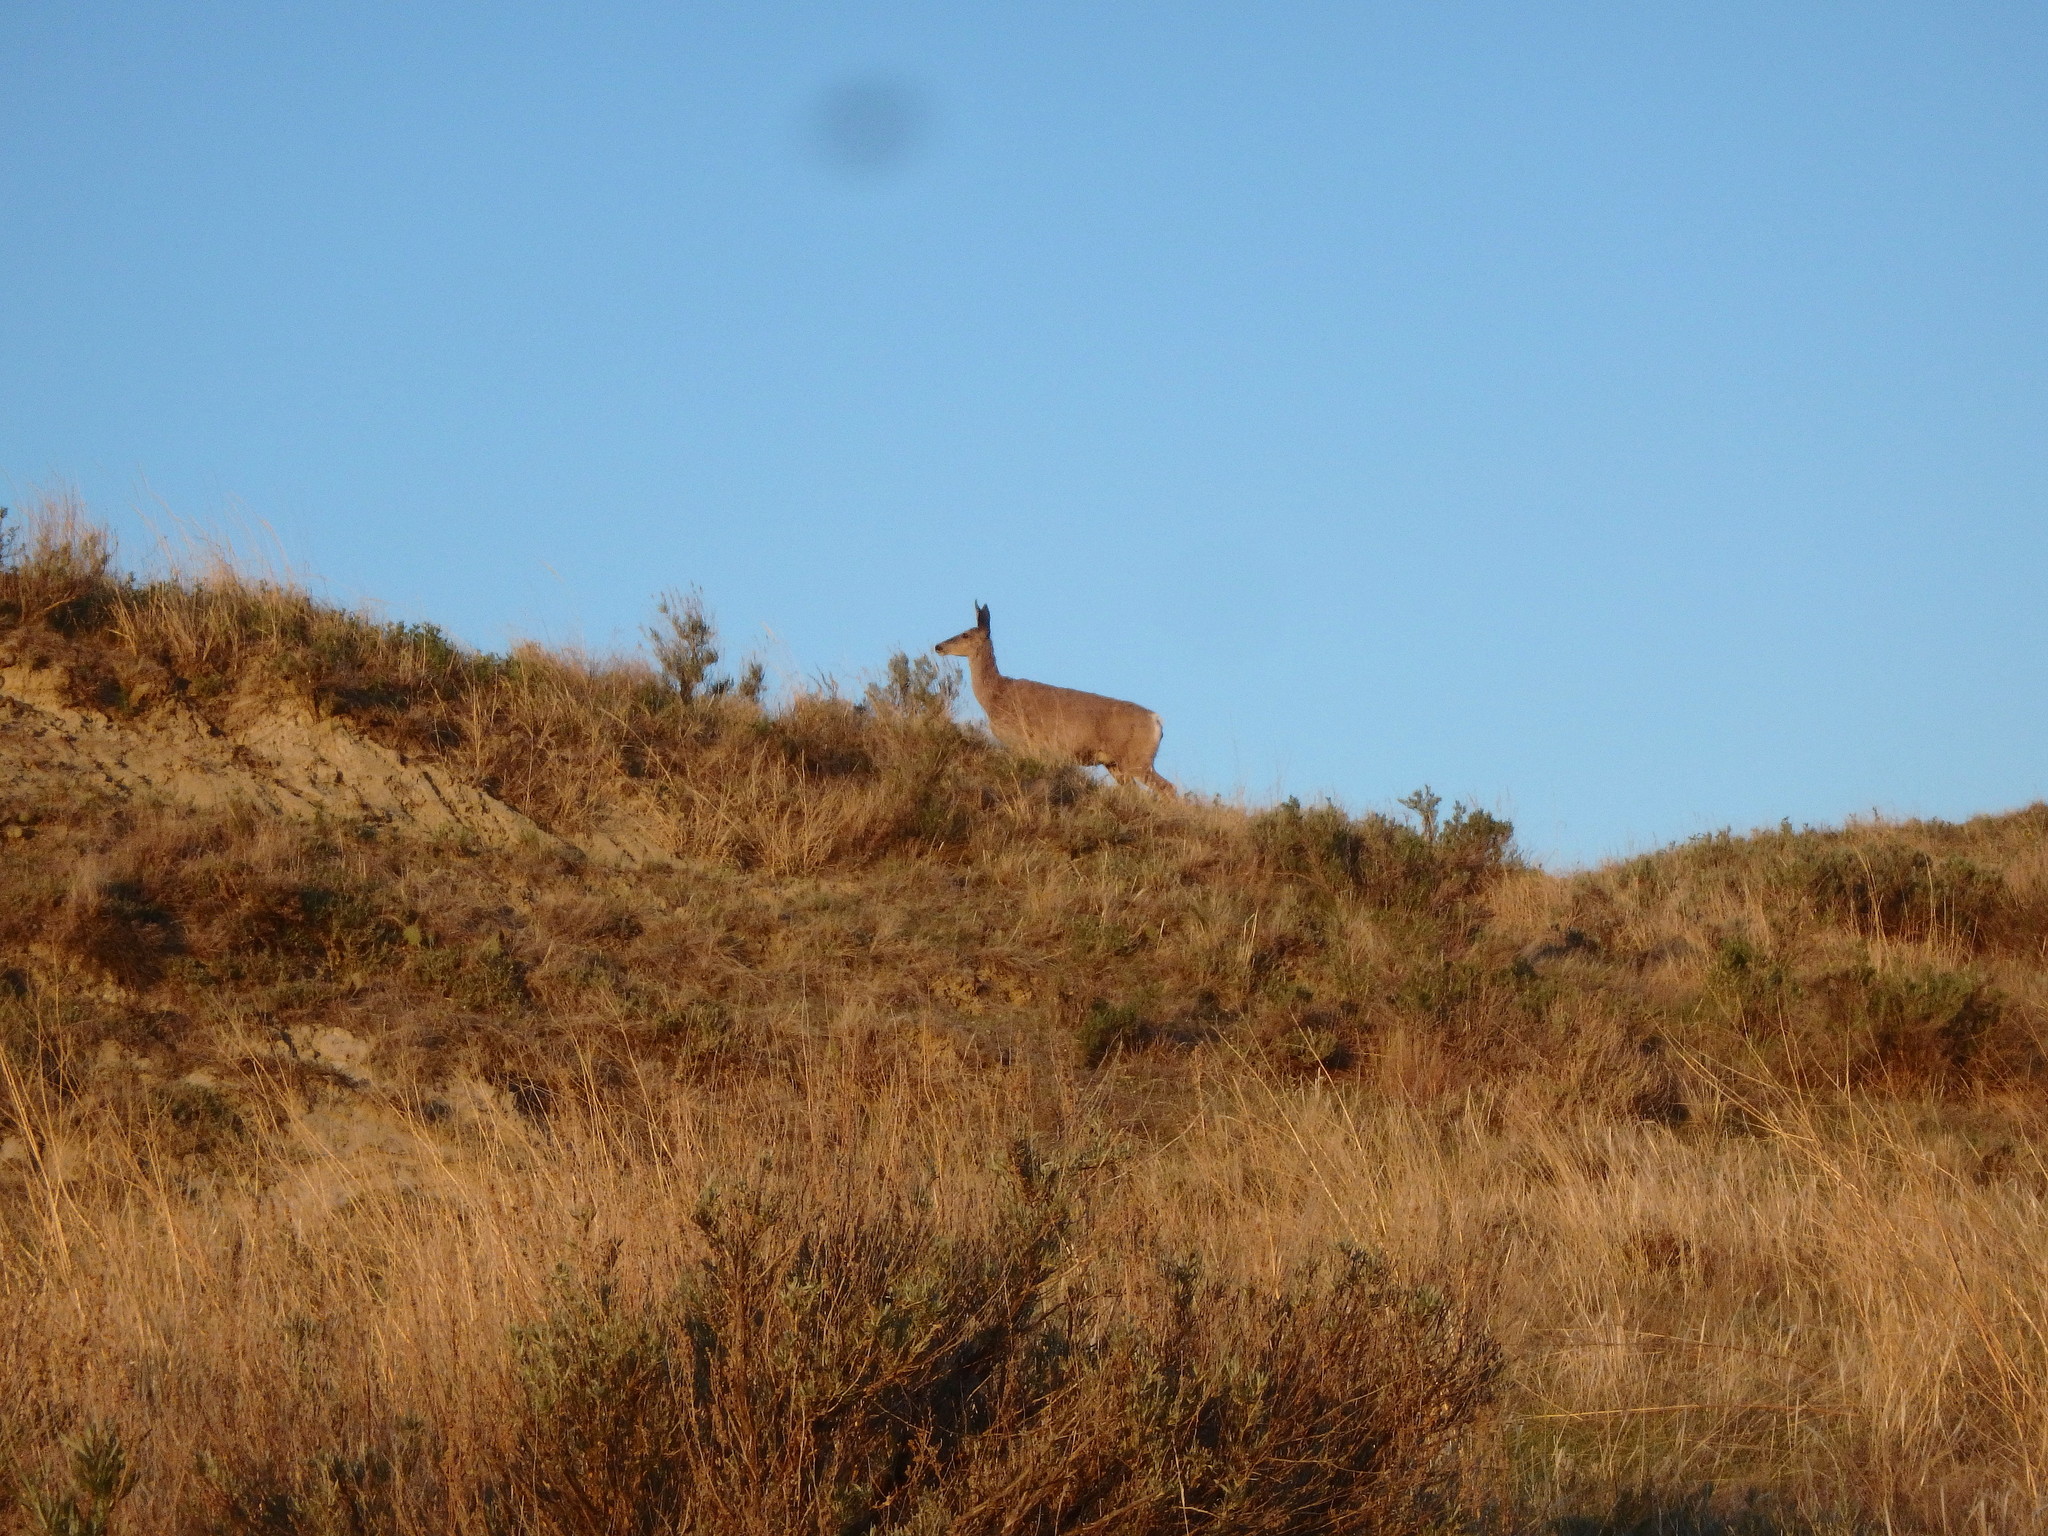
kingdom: Animalia
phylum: Chordata
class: Mammalia
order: Artiodactyla
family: Cervidae
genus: Odocoileus
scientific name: Odocoileus hemionus
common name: Mule deer
